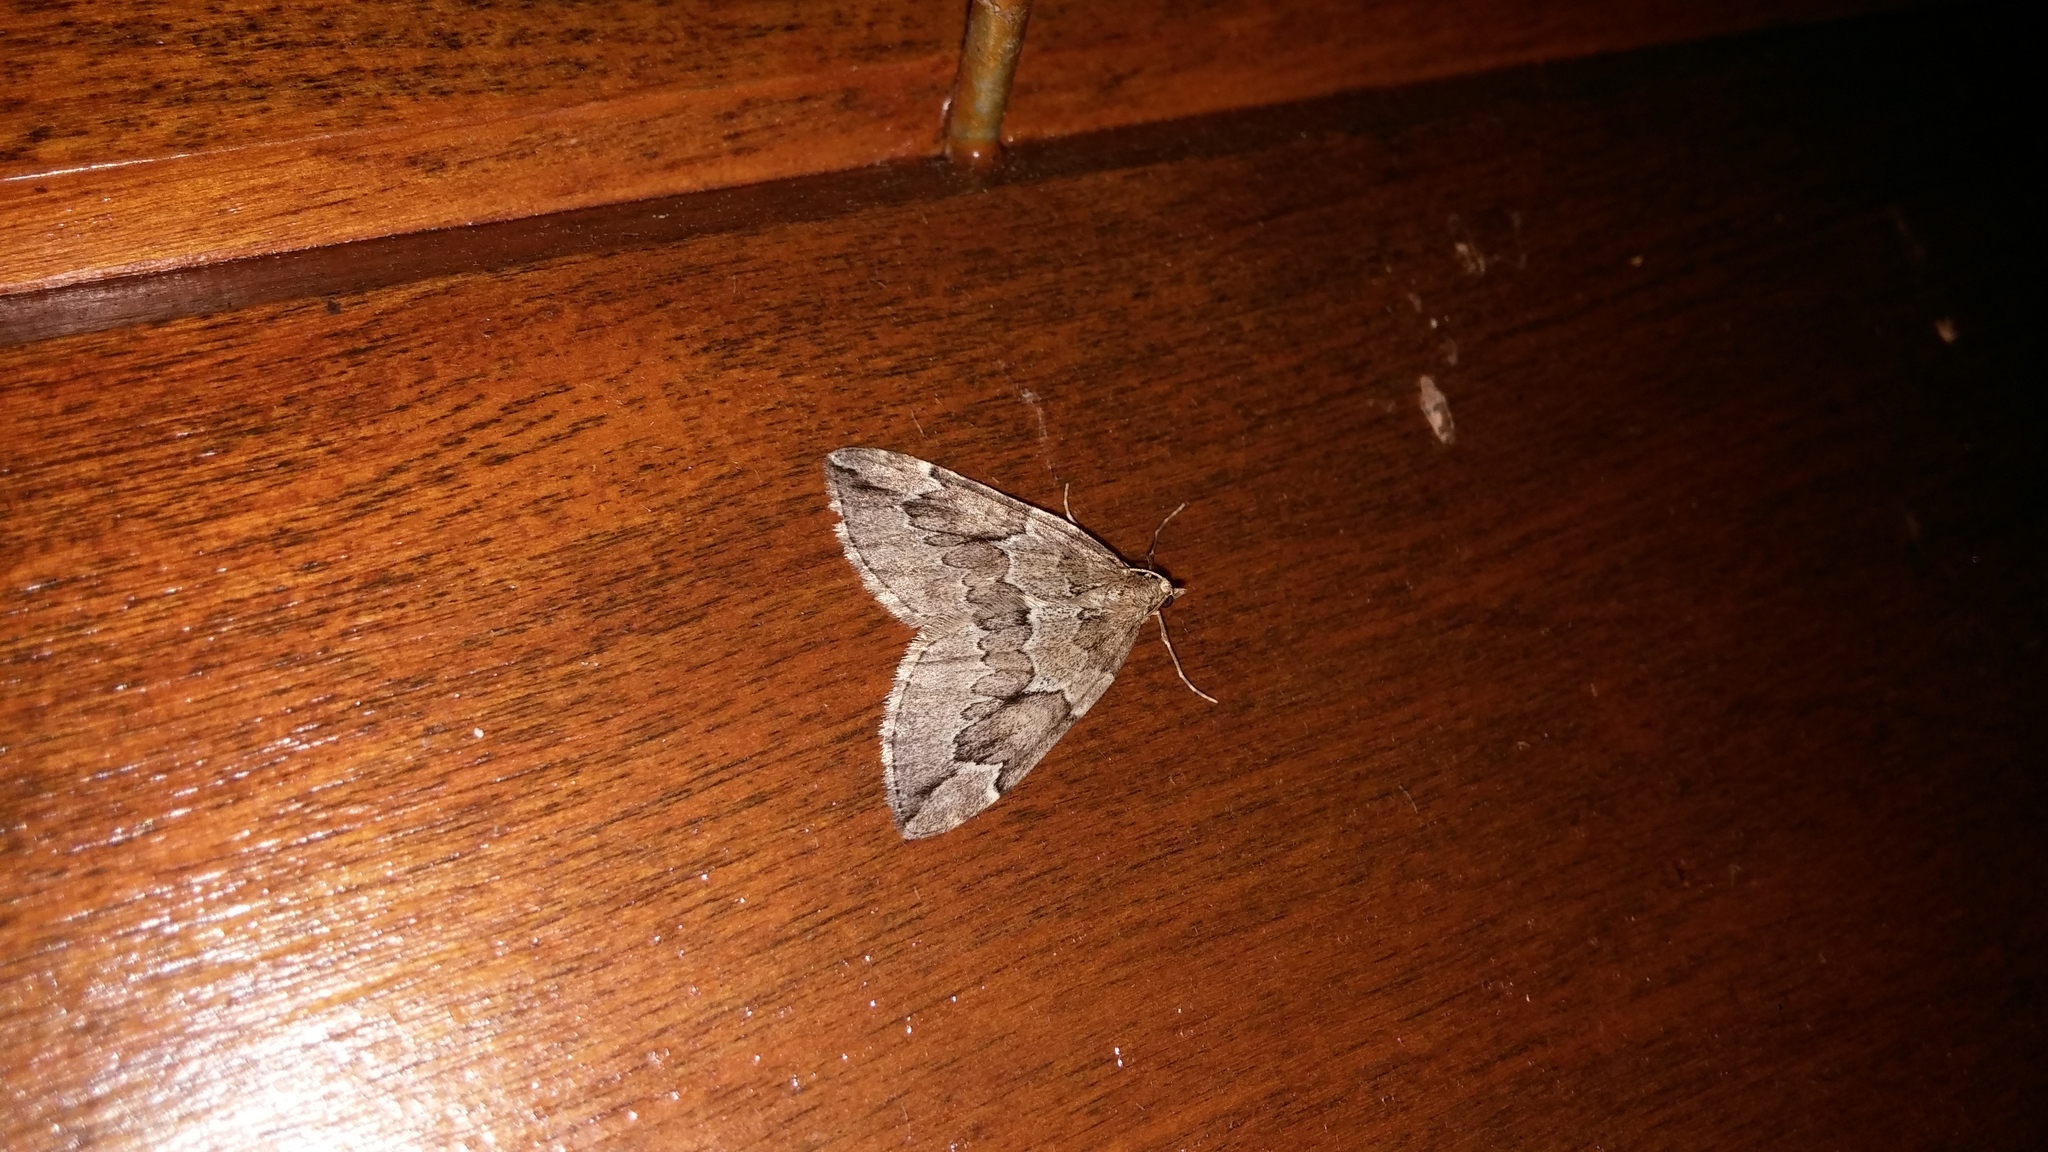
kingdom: Animalia
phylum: Arthropoda
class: Insecta
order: Lepidoptera
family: Geometridae
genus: Thera
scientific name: Thera juniperata
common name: Juniper carpet
